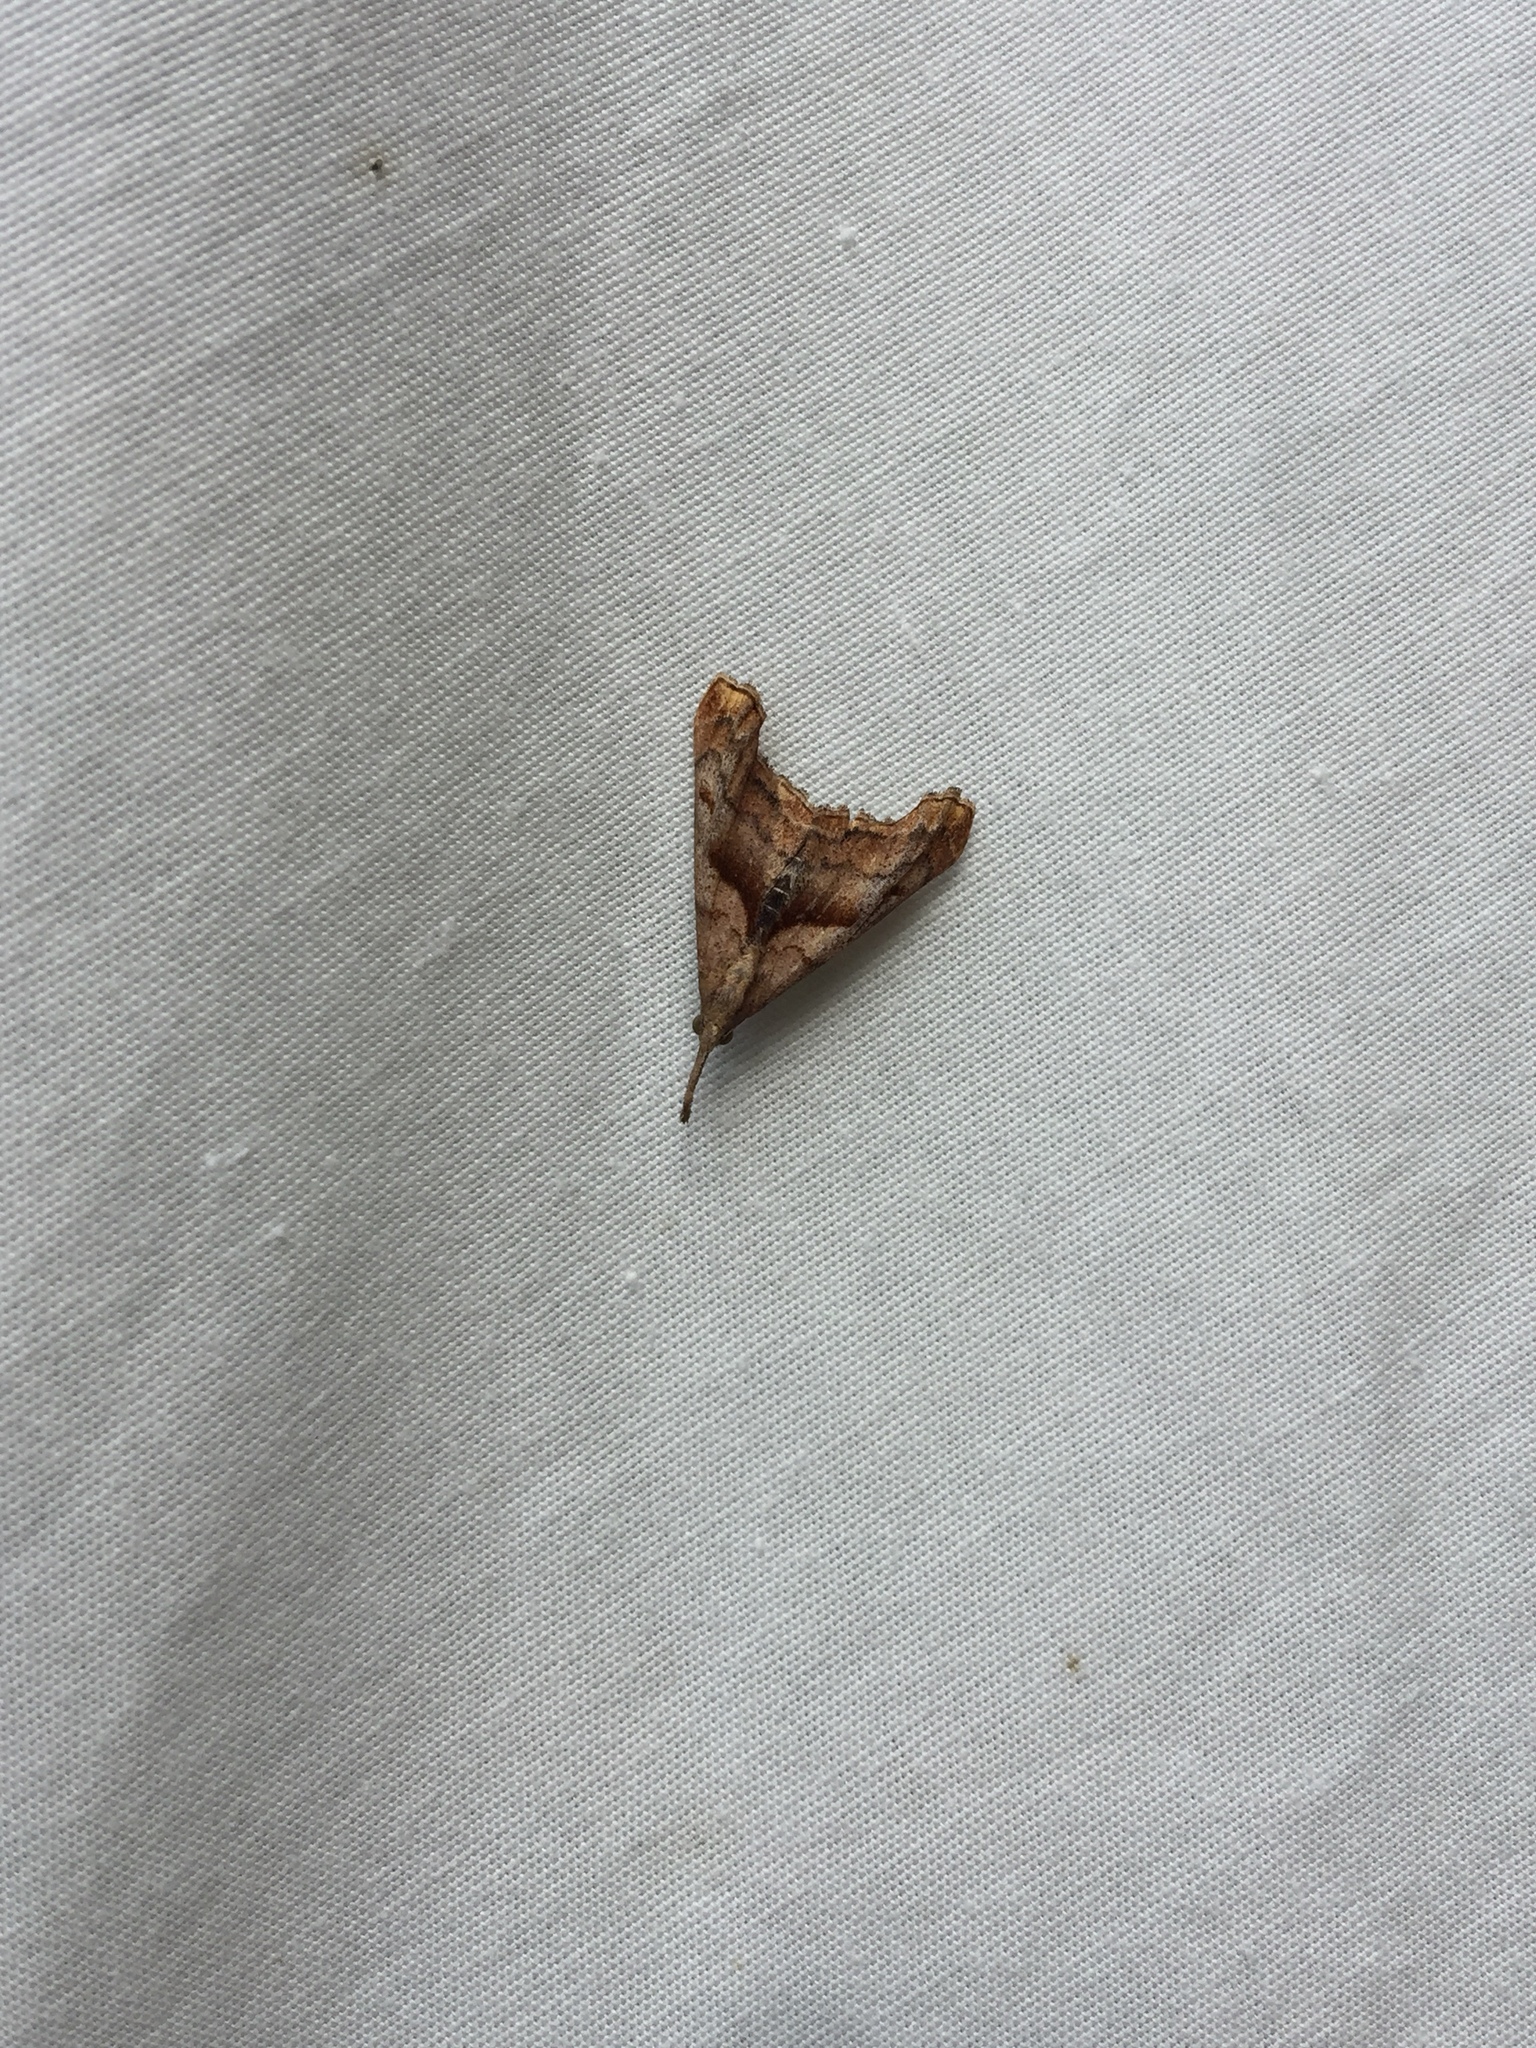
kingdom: Animalia
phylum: Arthropoda
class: Insecta
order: Lepidoptera
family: Erebidae
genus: Palthis
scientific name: Palthis angulalis
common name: Dark-spotted palthis moth
